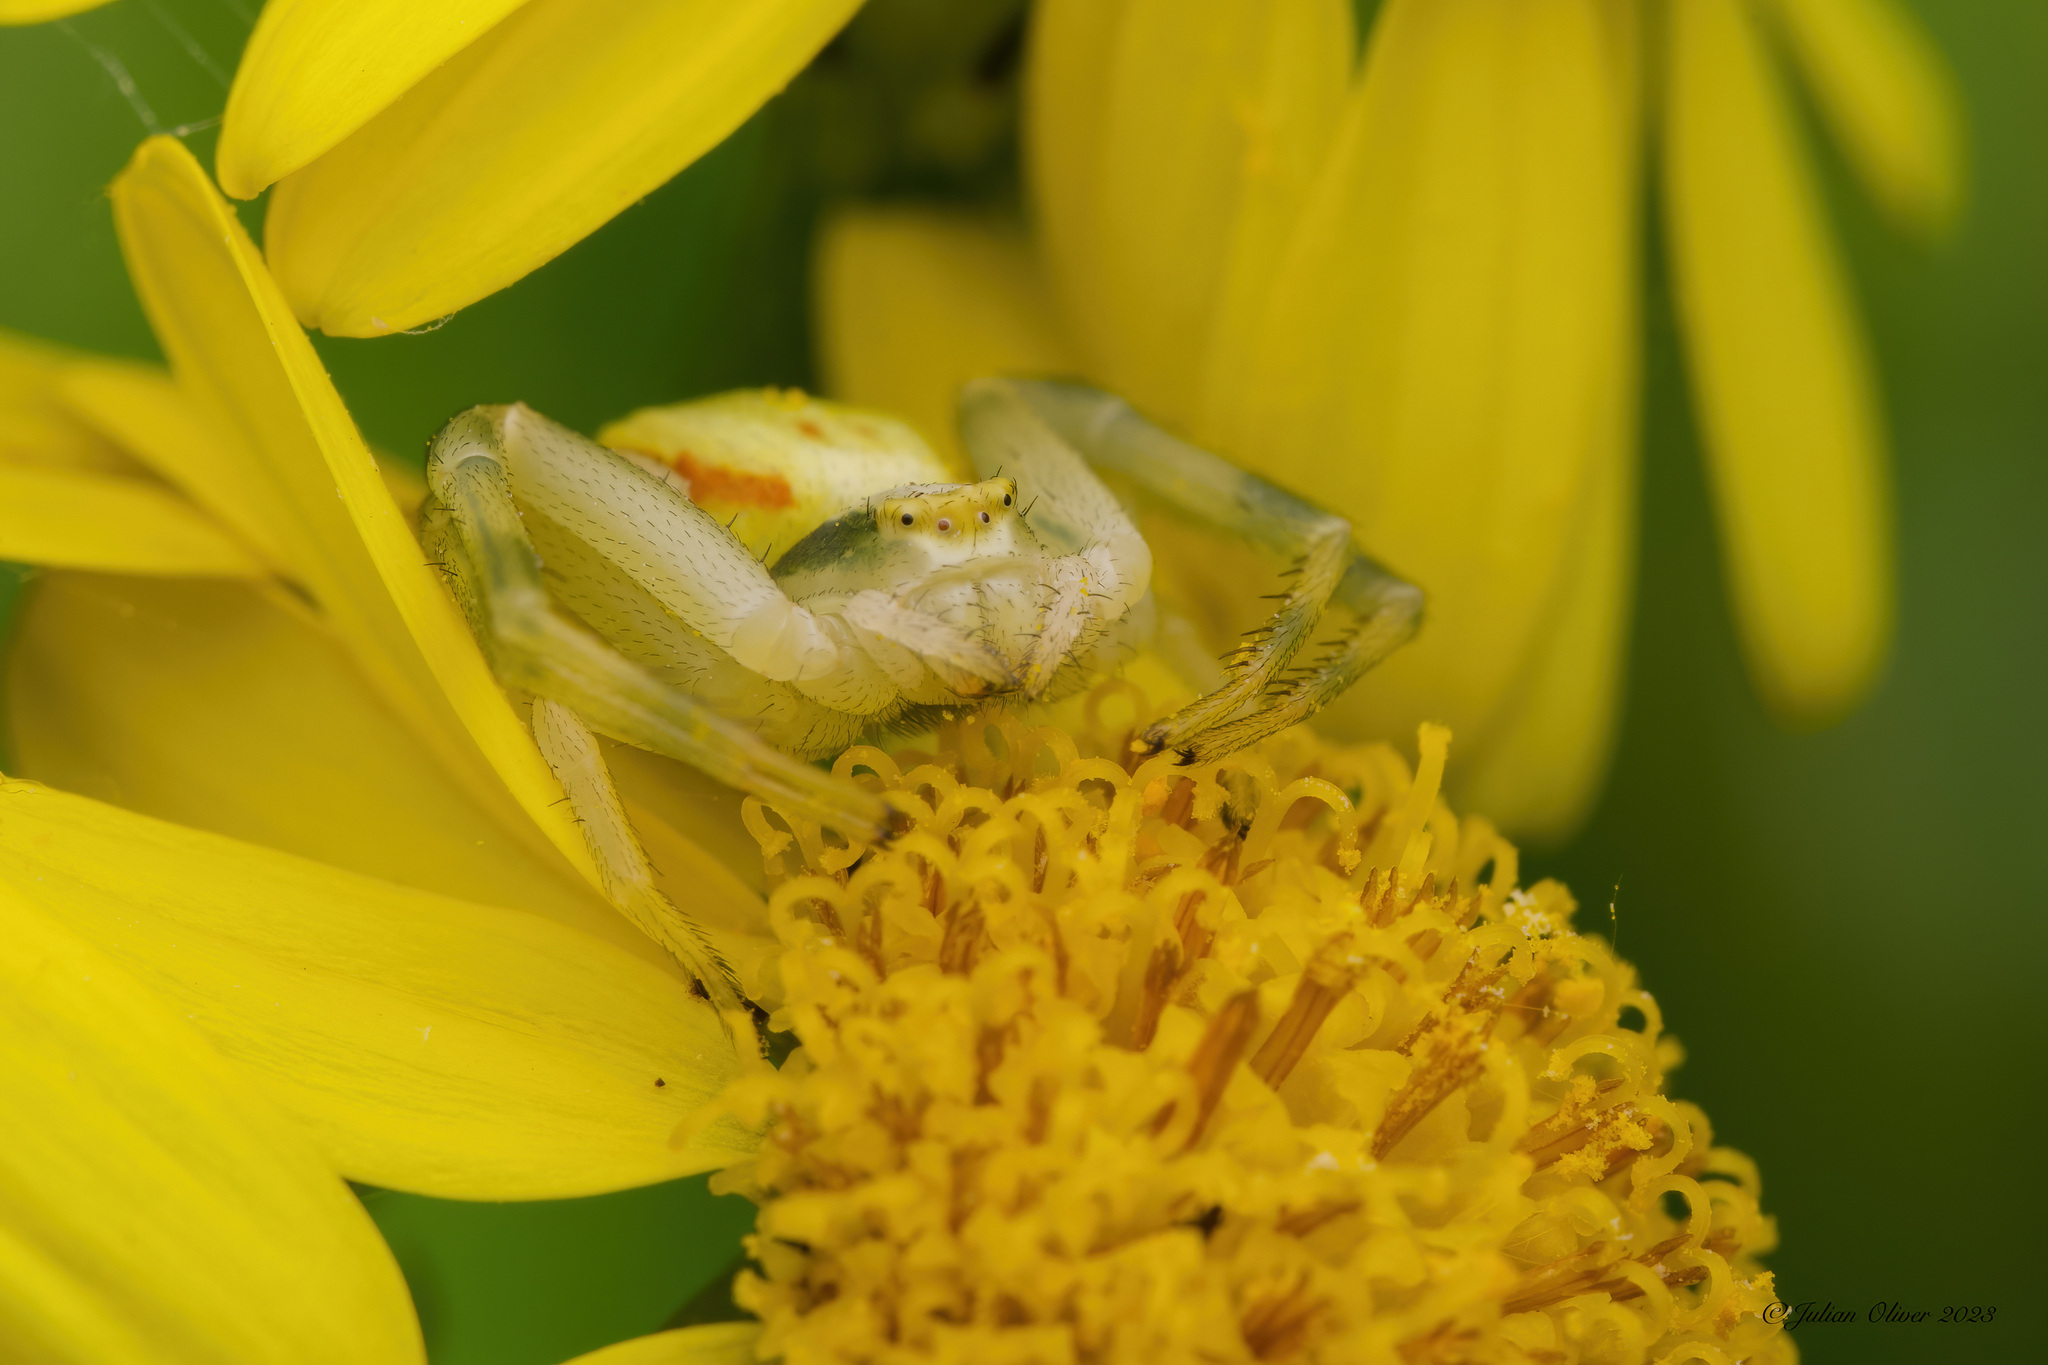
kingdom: Animalia
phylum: Arthropoda
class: Arachnida
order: Araneae
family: Thomisidae
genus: Misumena
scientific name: Misumena vatia
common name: Goldenrod crab spider
